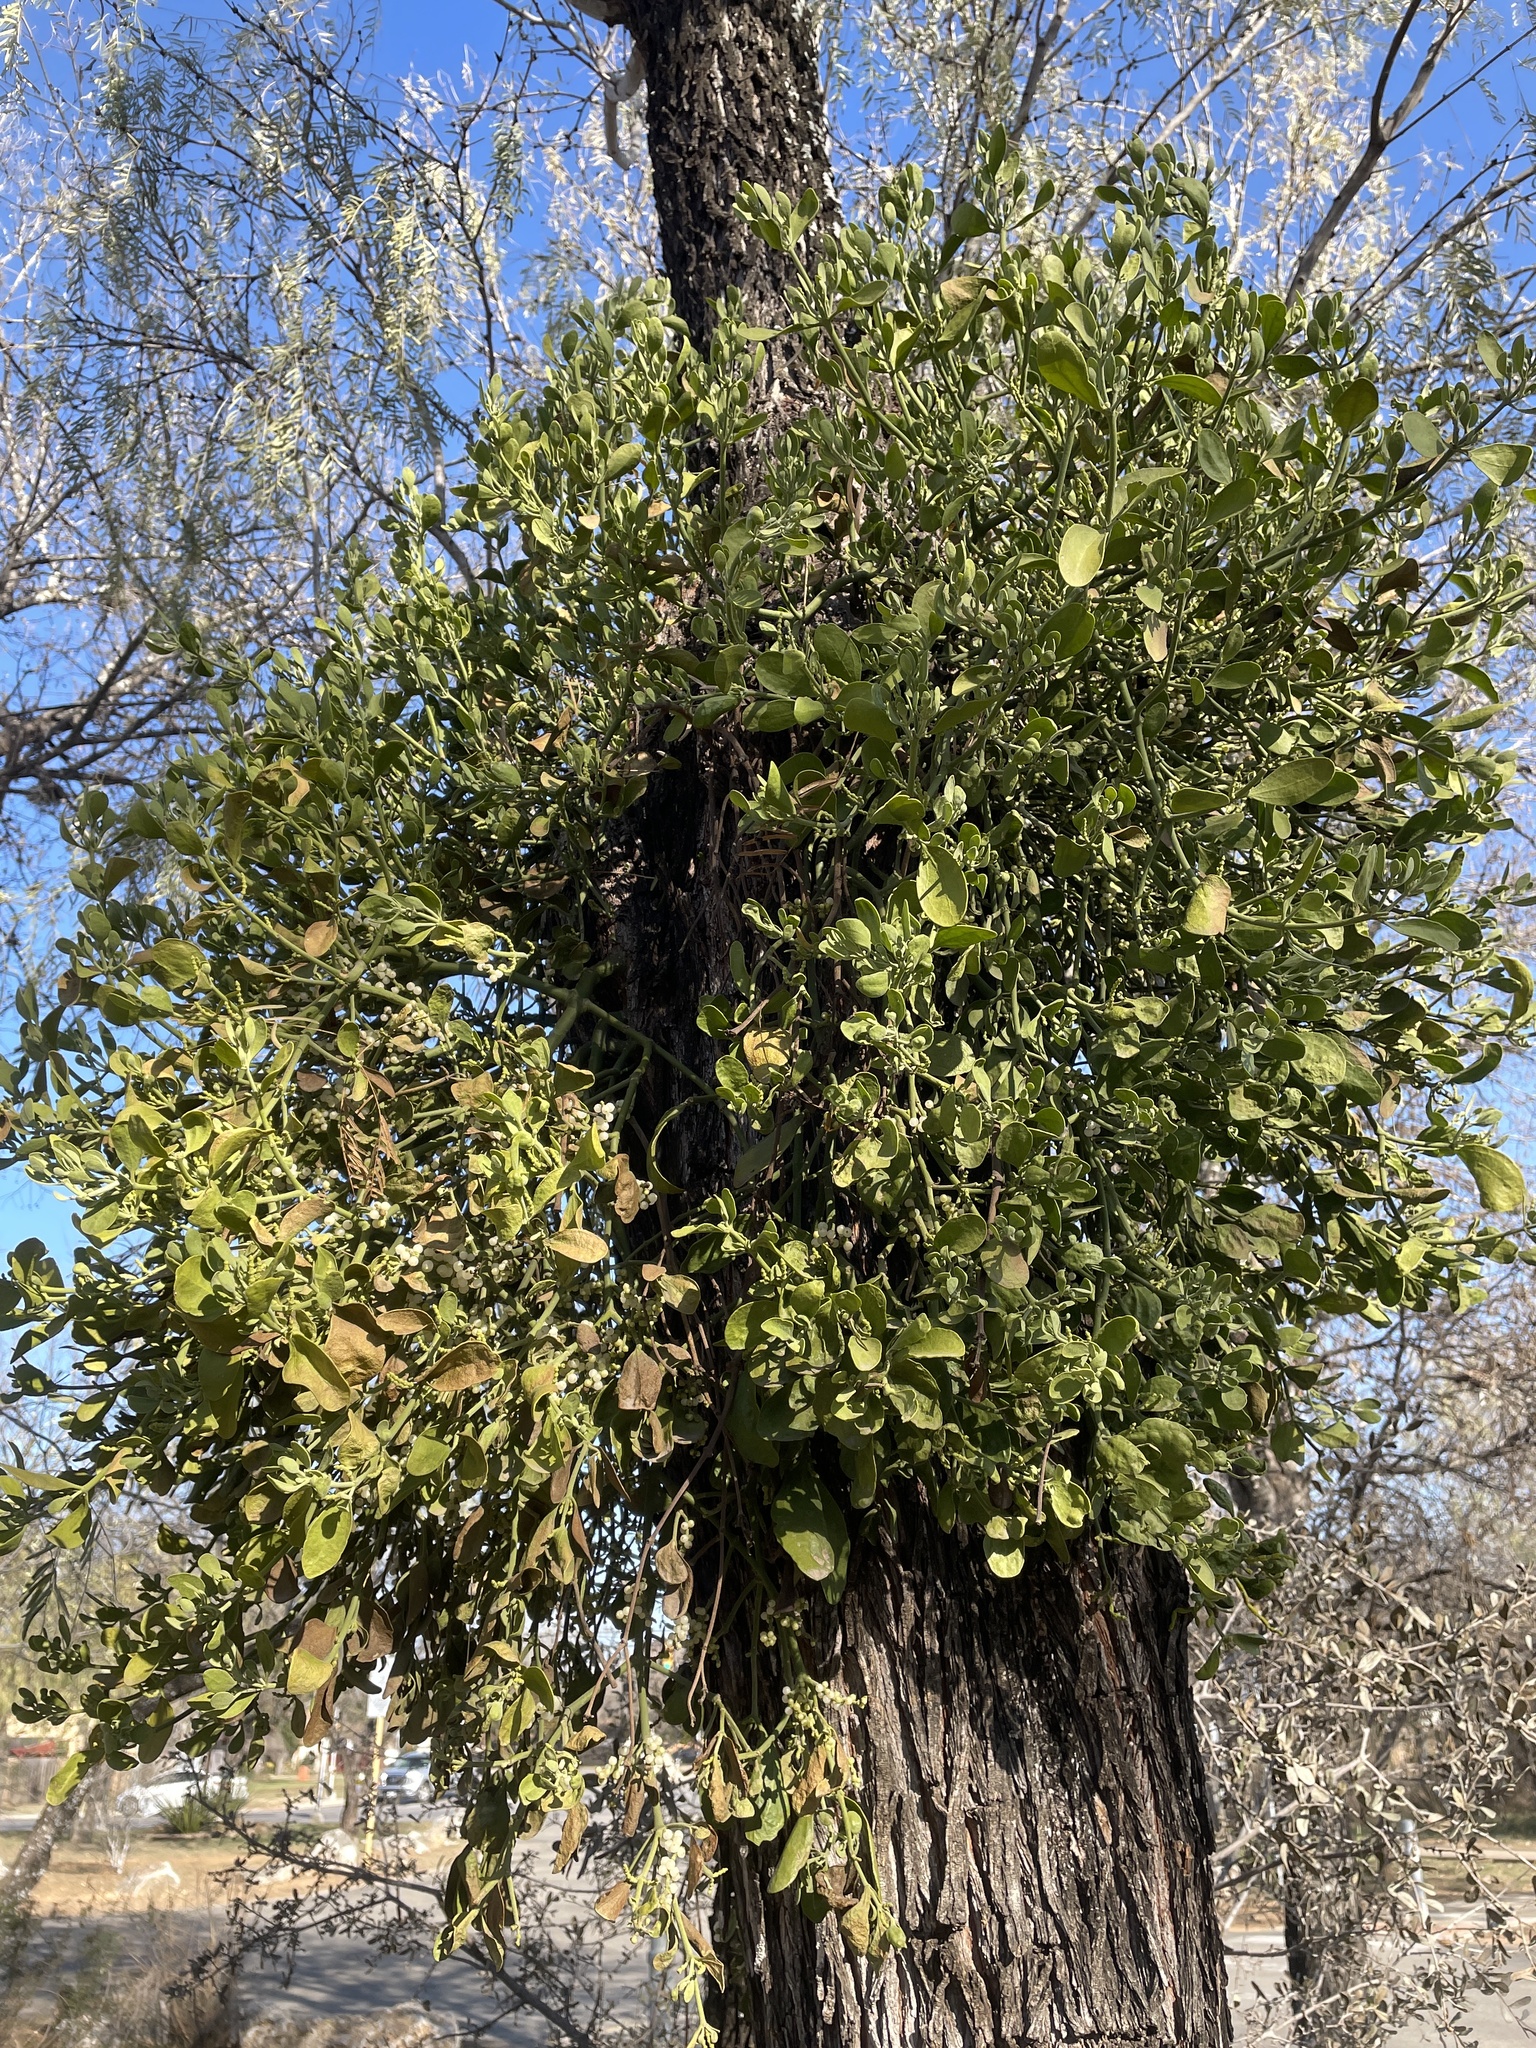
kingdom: Plantae
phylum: Tracheophyta
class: Magnoliopsida
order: Santalales
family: Viscaceae
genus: Phoradendron
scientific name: Phoradendron leucarpum
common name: Pacific mistletoe
